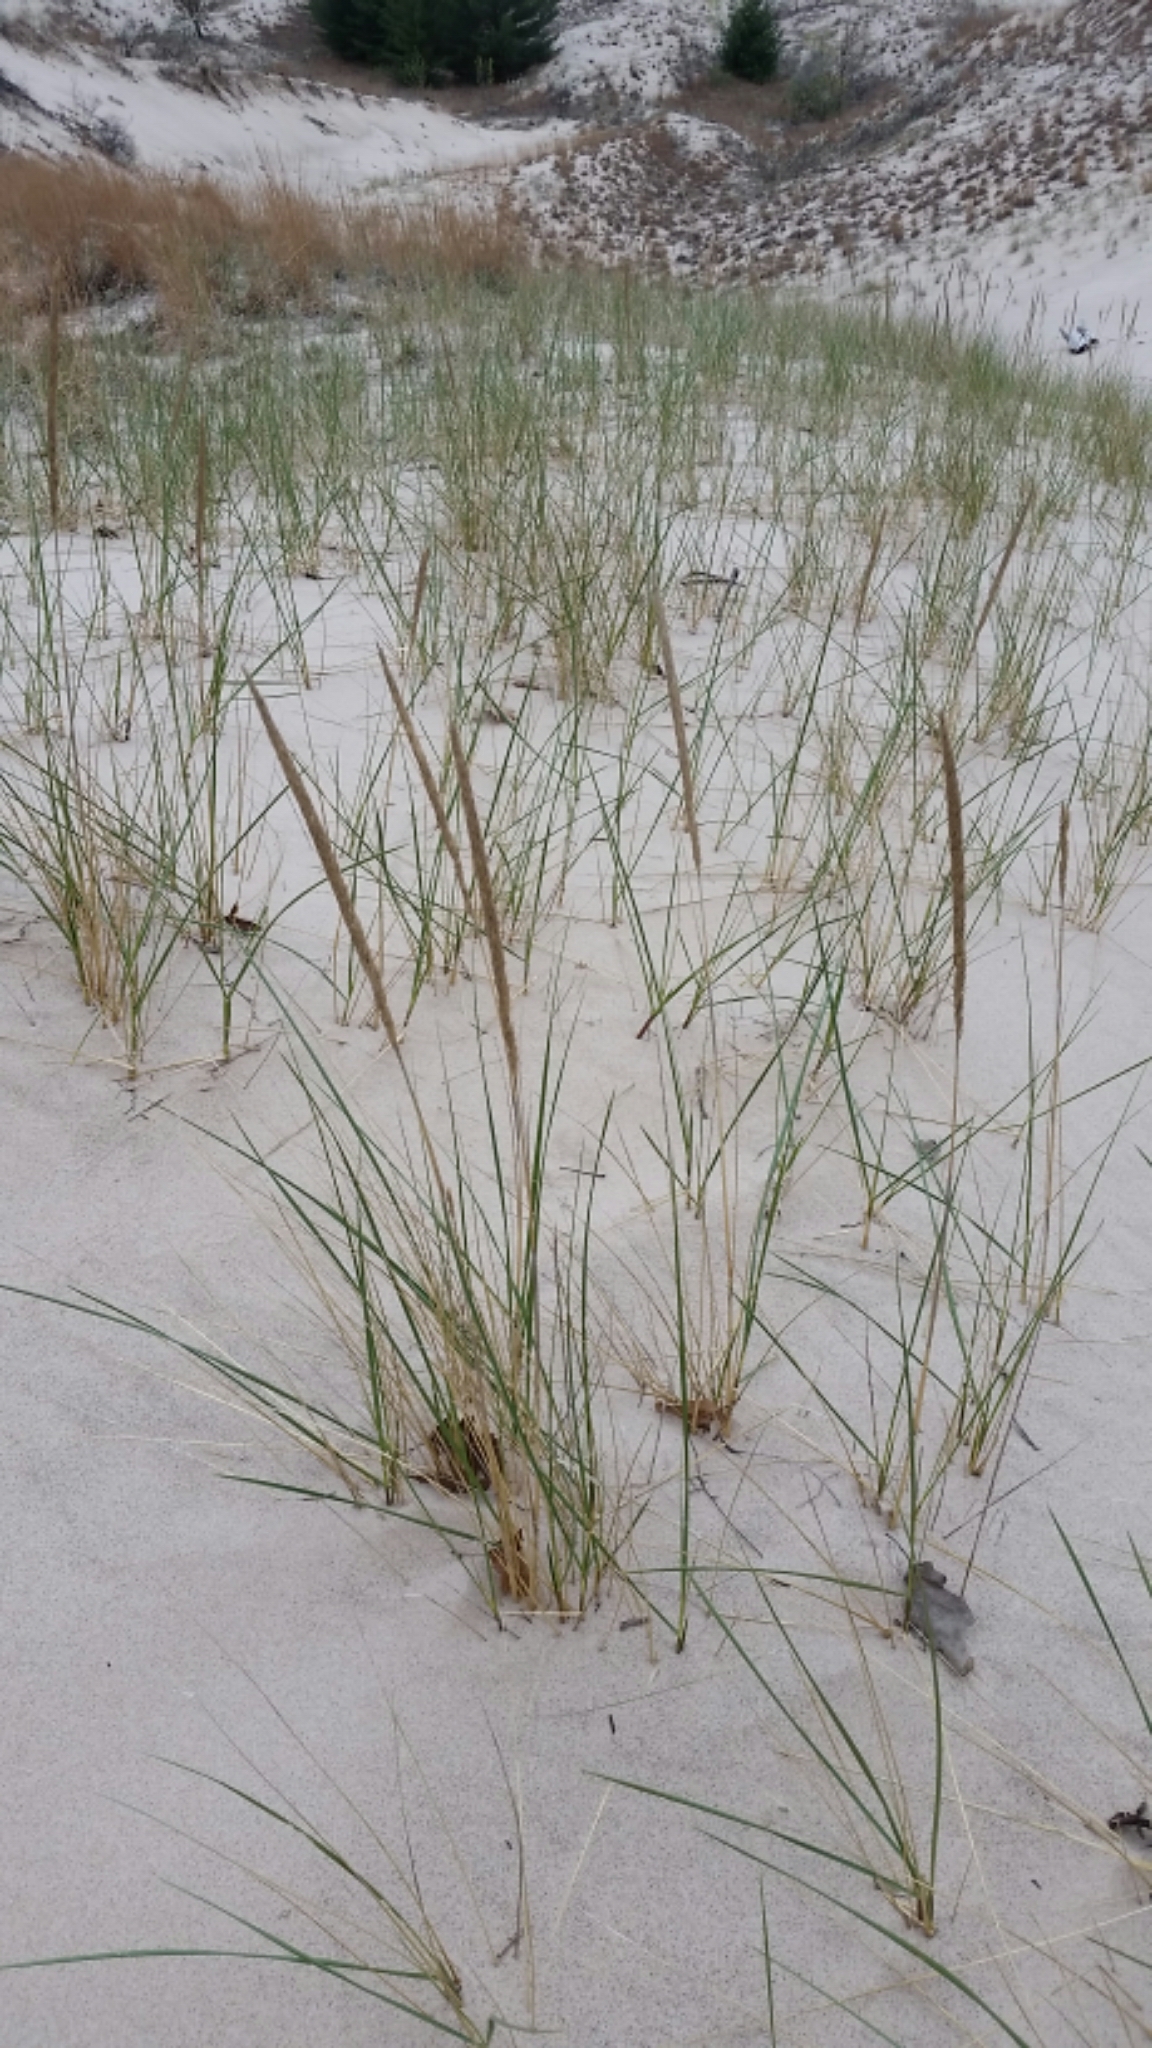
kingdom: Plantae
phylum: Tracheophyta
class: Liliopsida
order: Poales
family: Poaceae
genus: Calamagrostis
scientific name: Calamagrostis breviligulata
